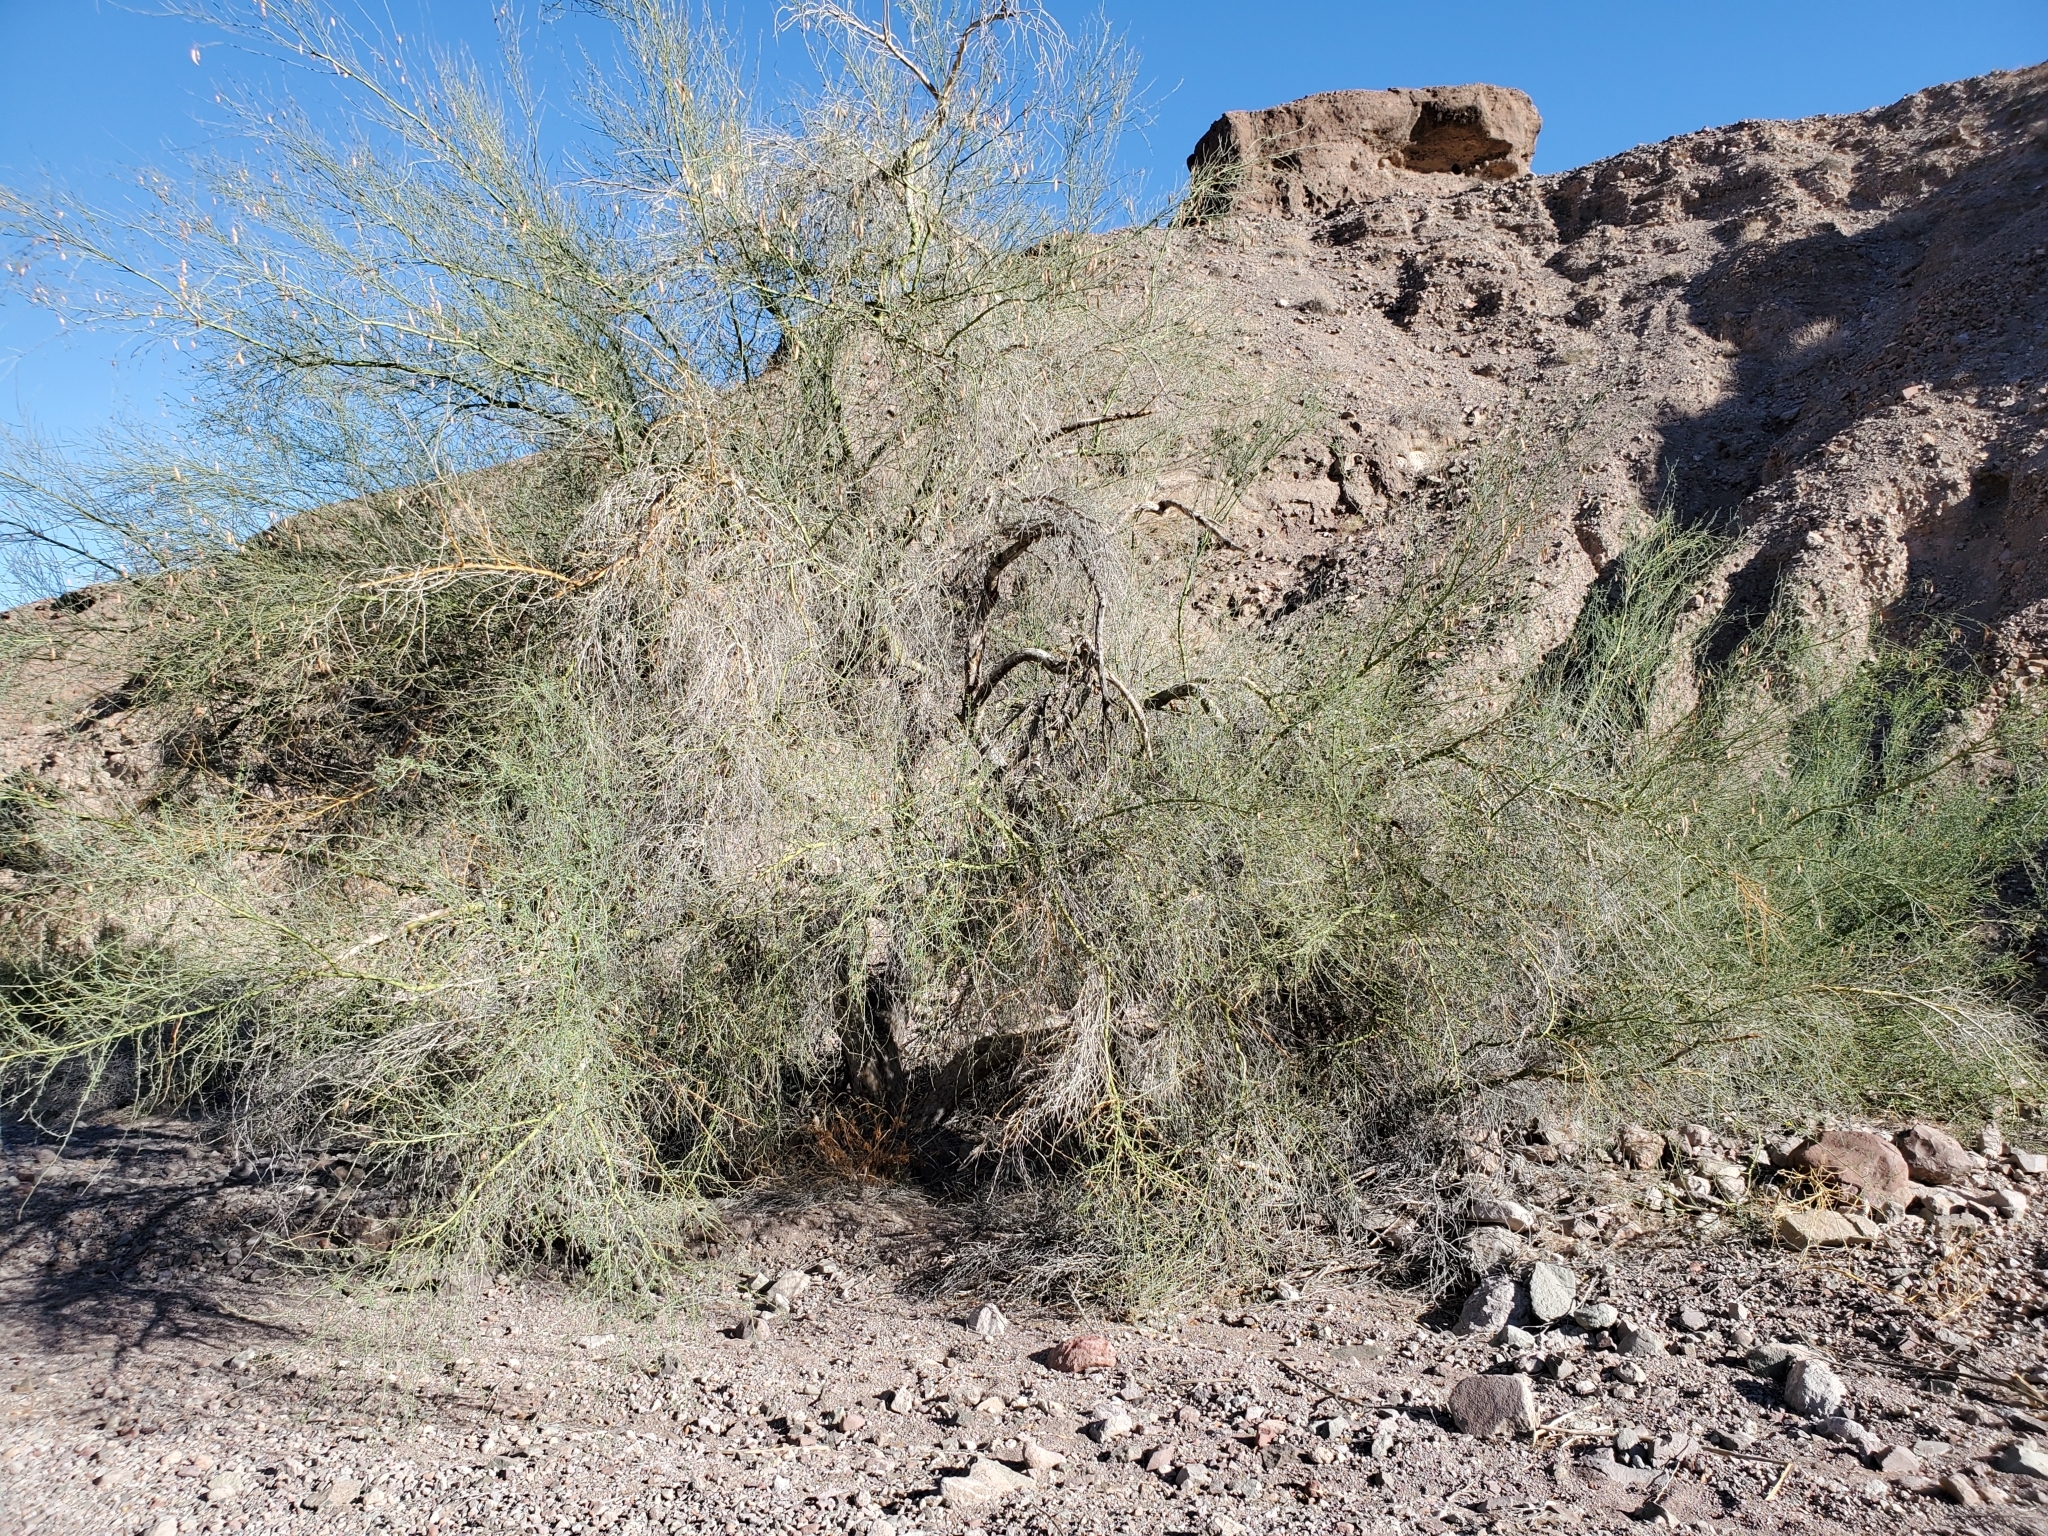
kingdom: Plantae
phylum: Tracheophyta
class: Magnoliopsida
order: Fabales
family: Fabaceae
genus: Parkinsonia
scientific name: Parkinsonia florida
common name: Blue paloverde
